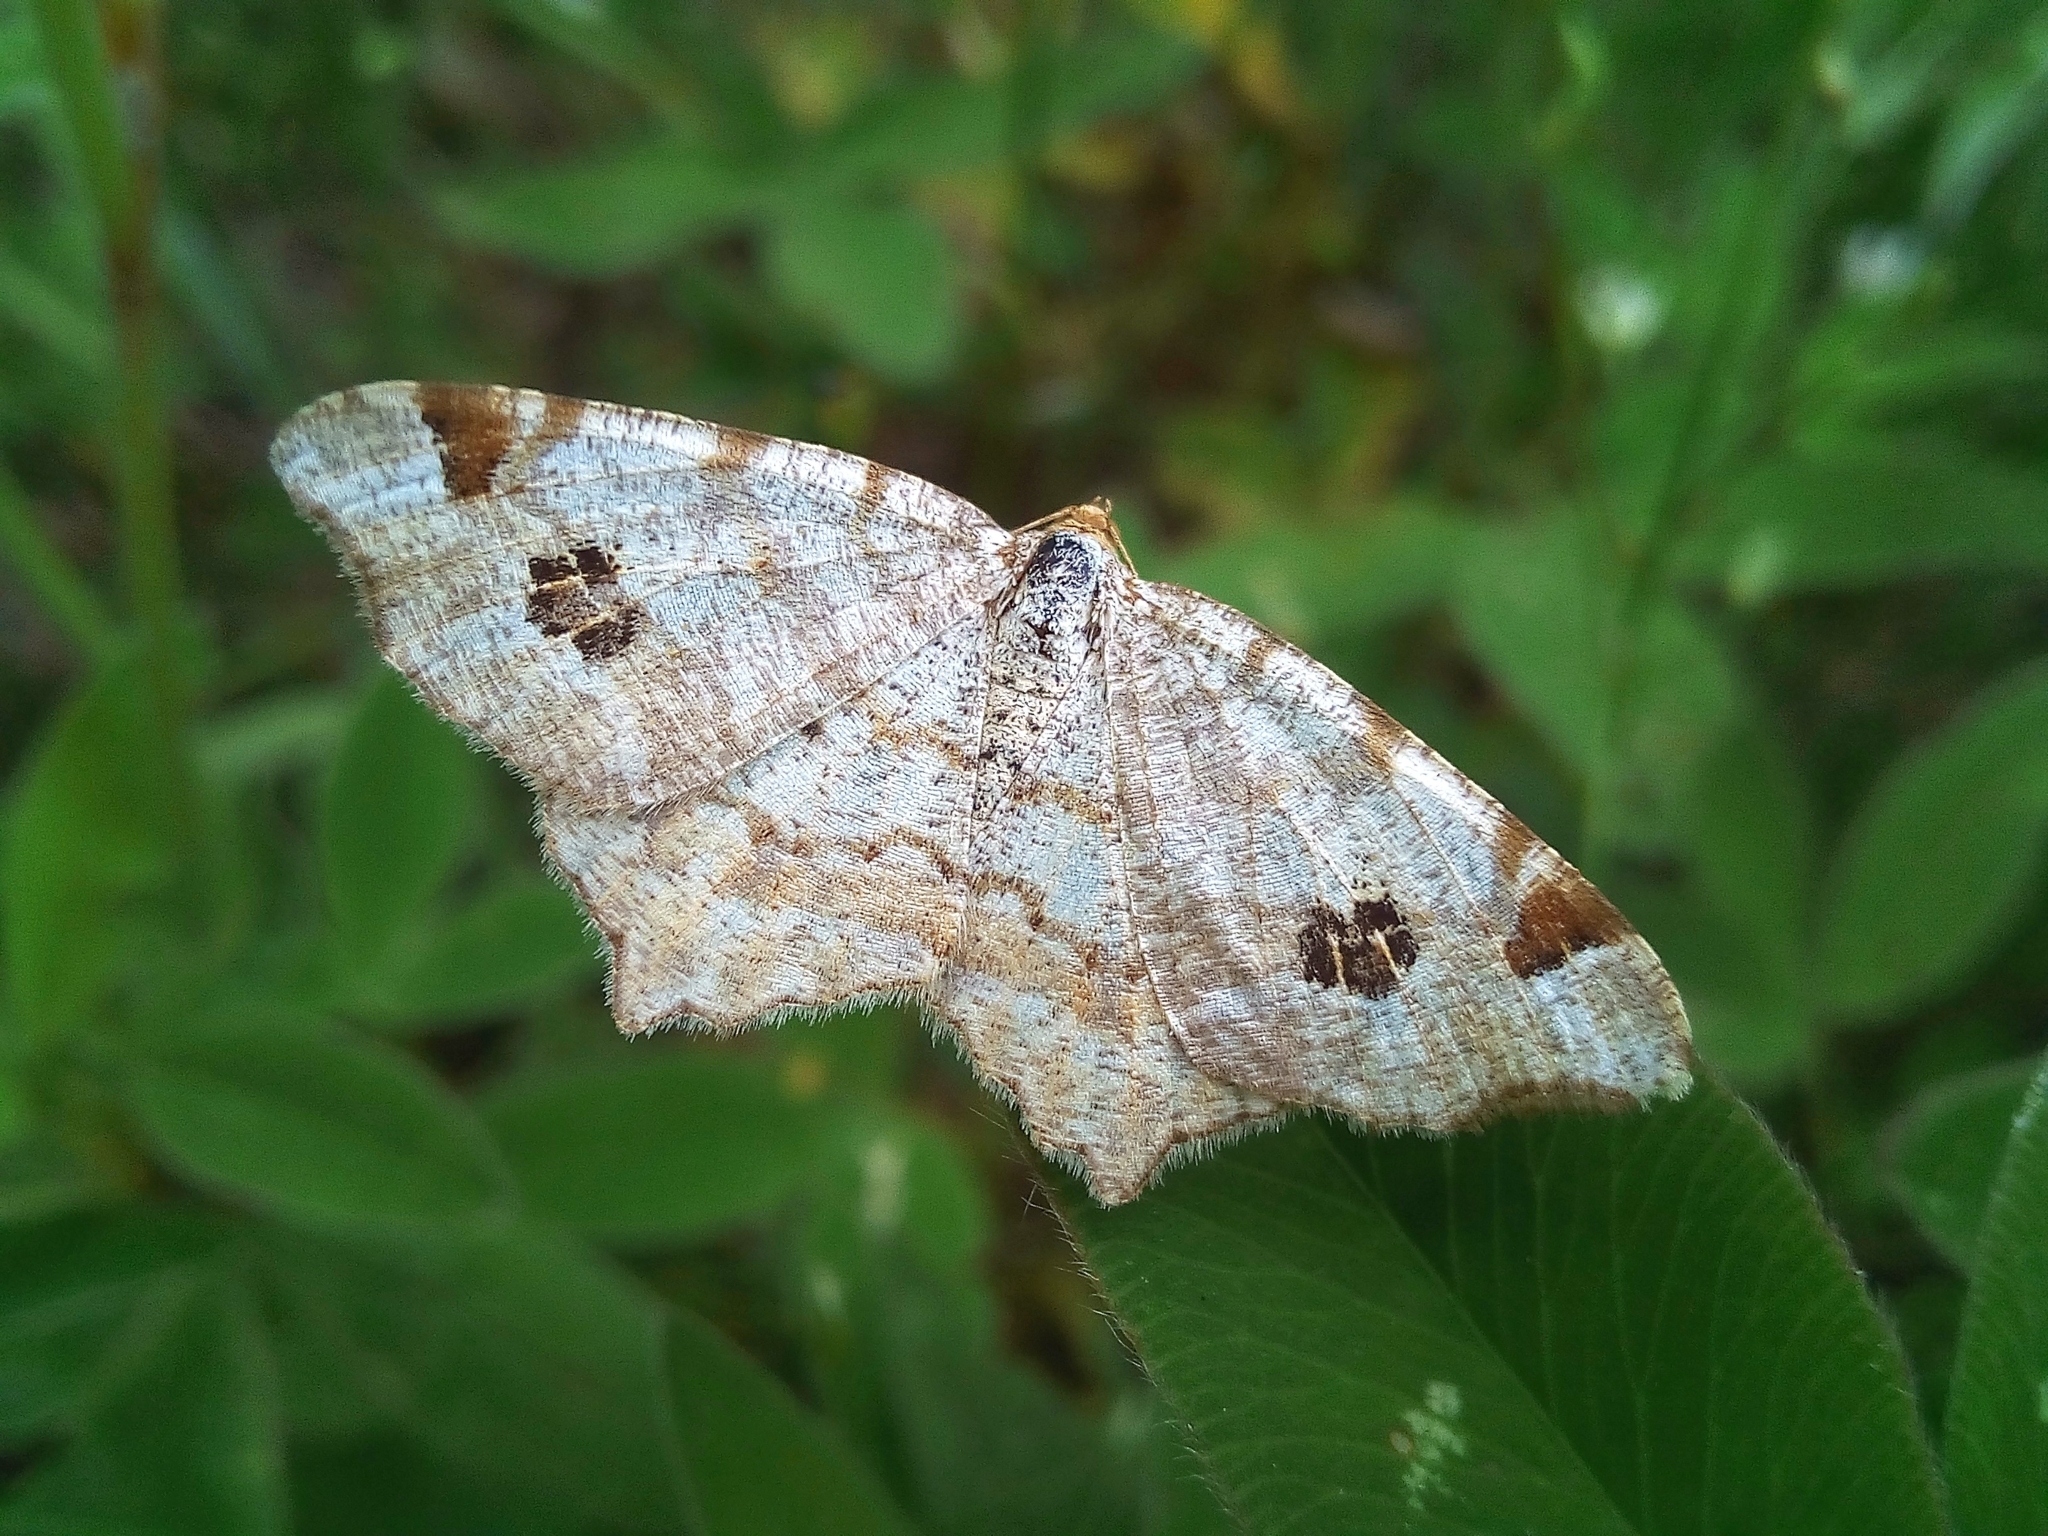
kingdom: Animalia
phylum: Arthropoda
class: Insecta
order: Lepidoptera
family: Geometridae
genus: Macaria
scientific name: Macaria notata
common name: Peacock moth
